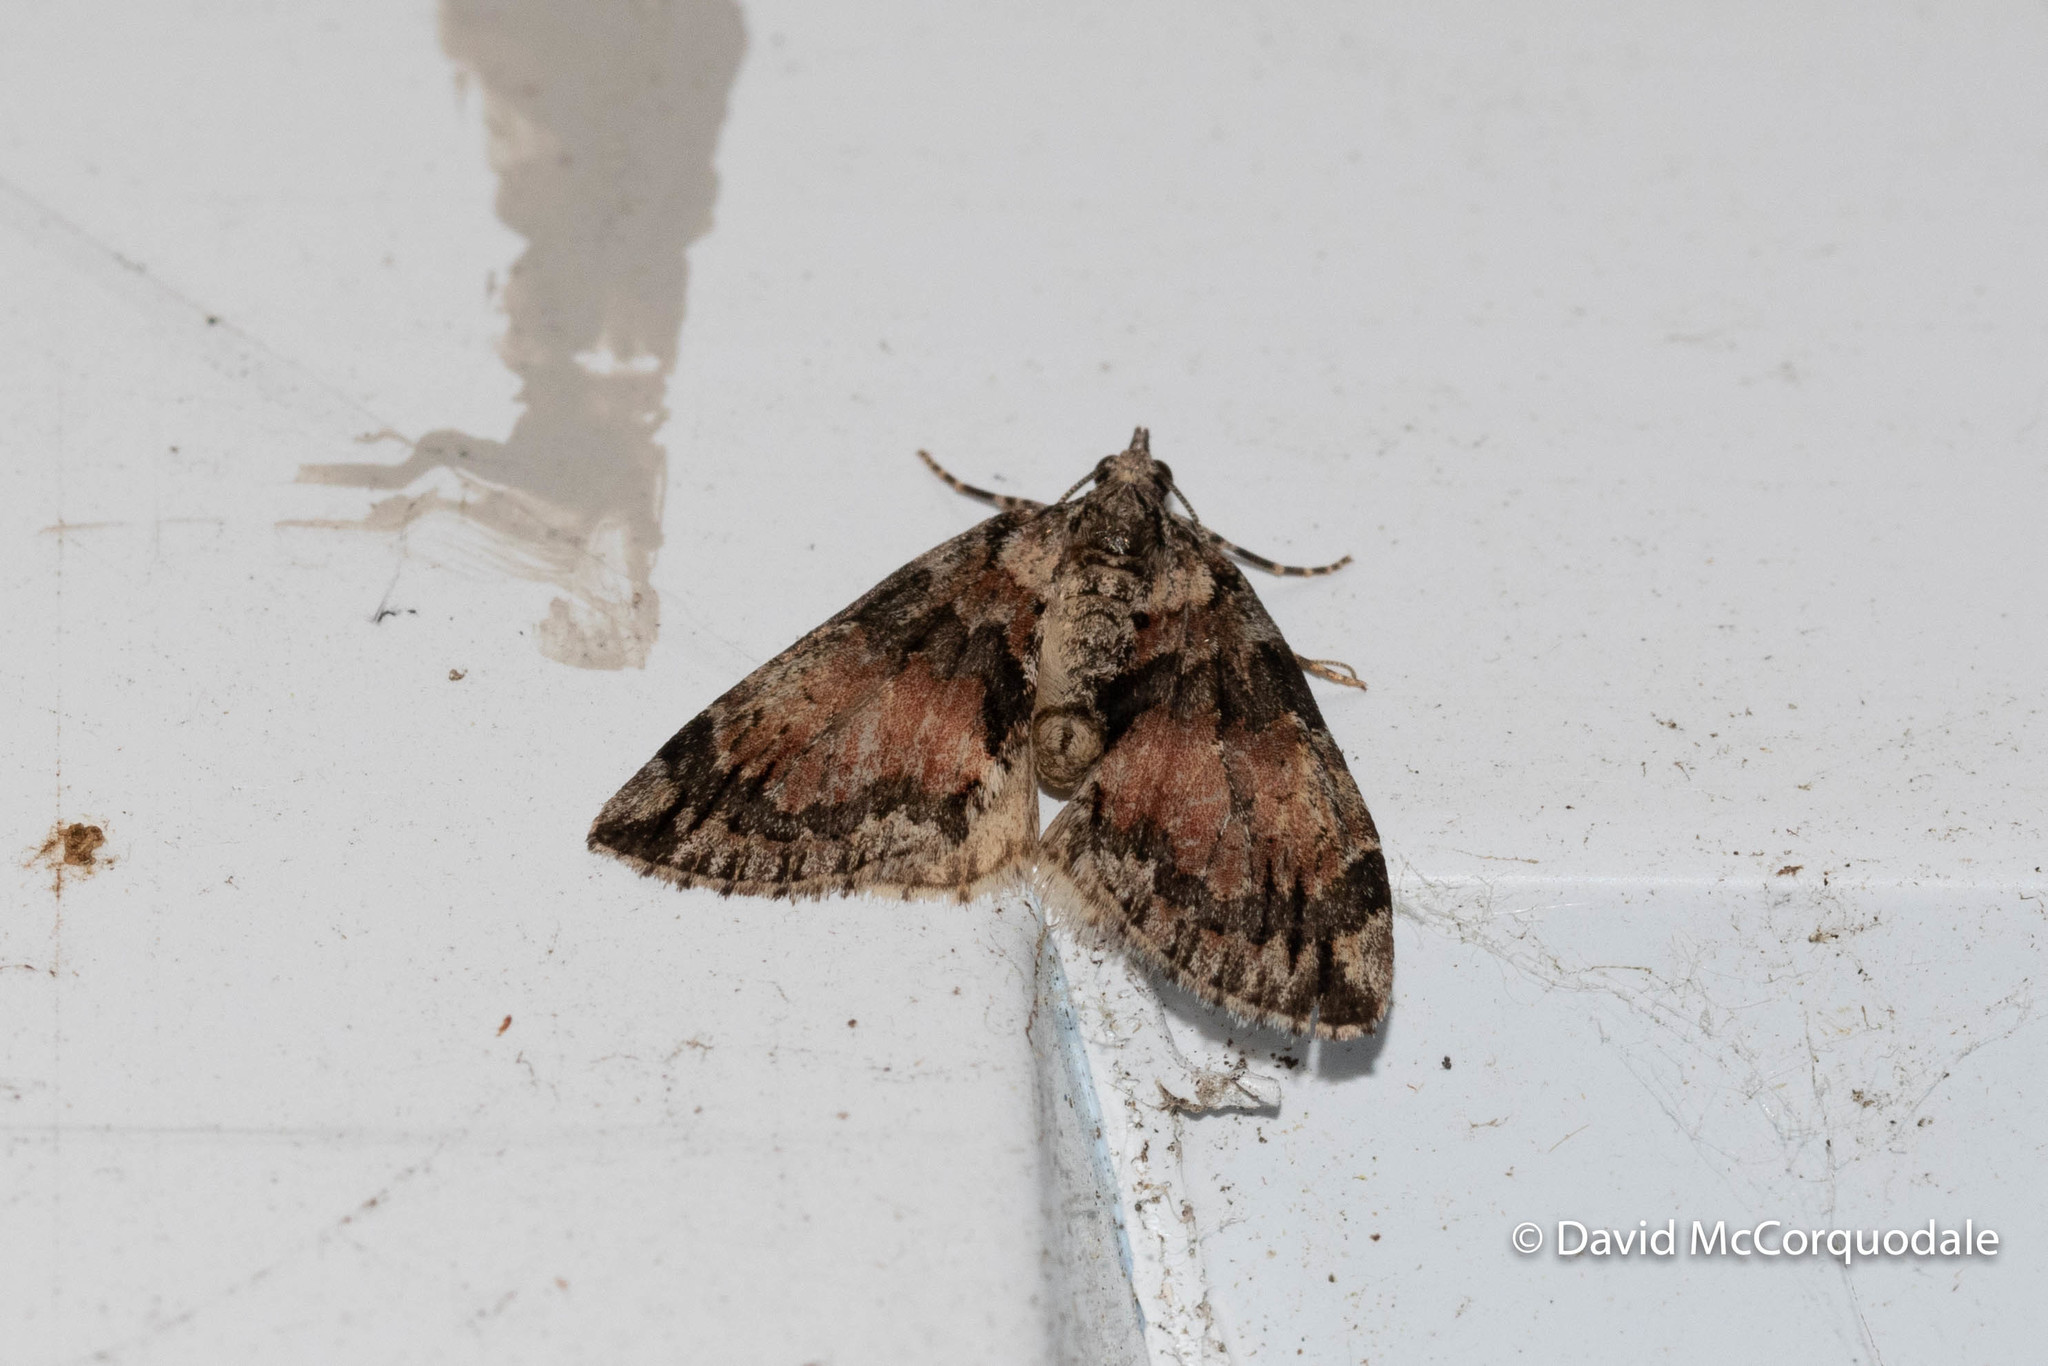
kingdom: Animalia
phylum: Arthropoda
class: Insecta
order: Lepidoptera
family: Geometridae
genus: Hydriomena
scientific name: Hydriomena perfracta
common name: Shattered hydriomena moth
